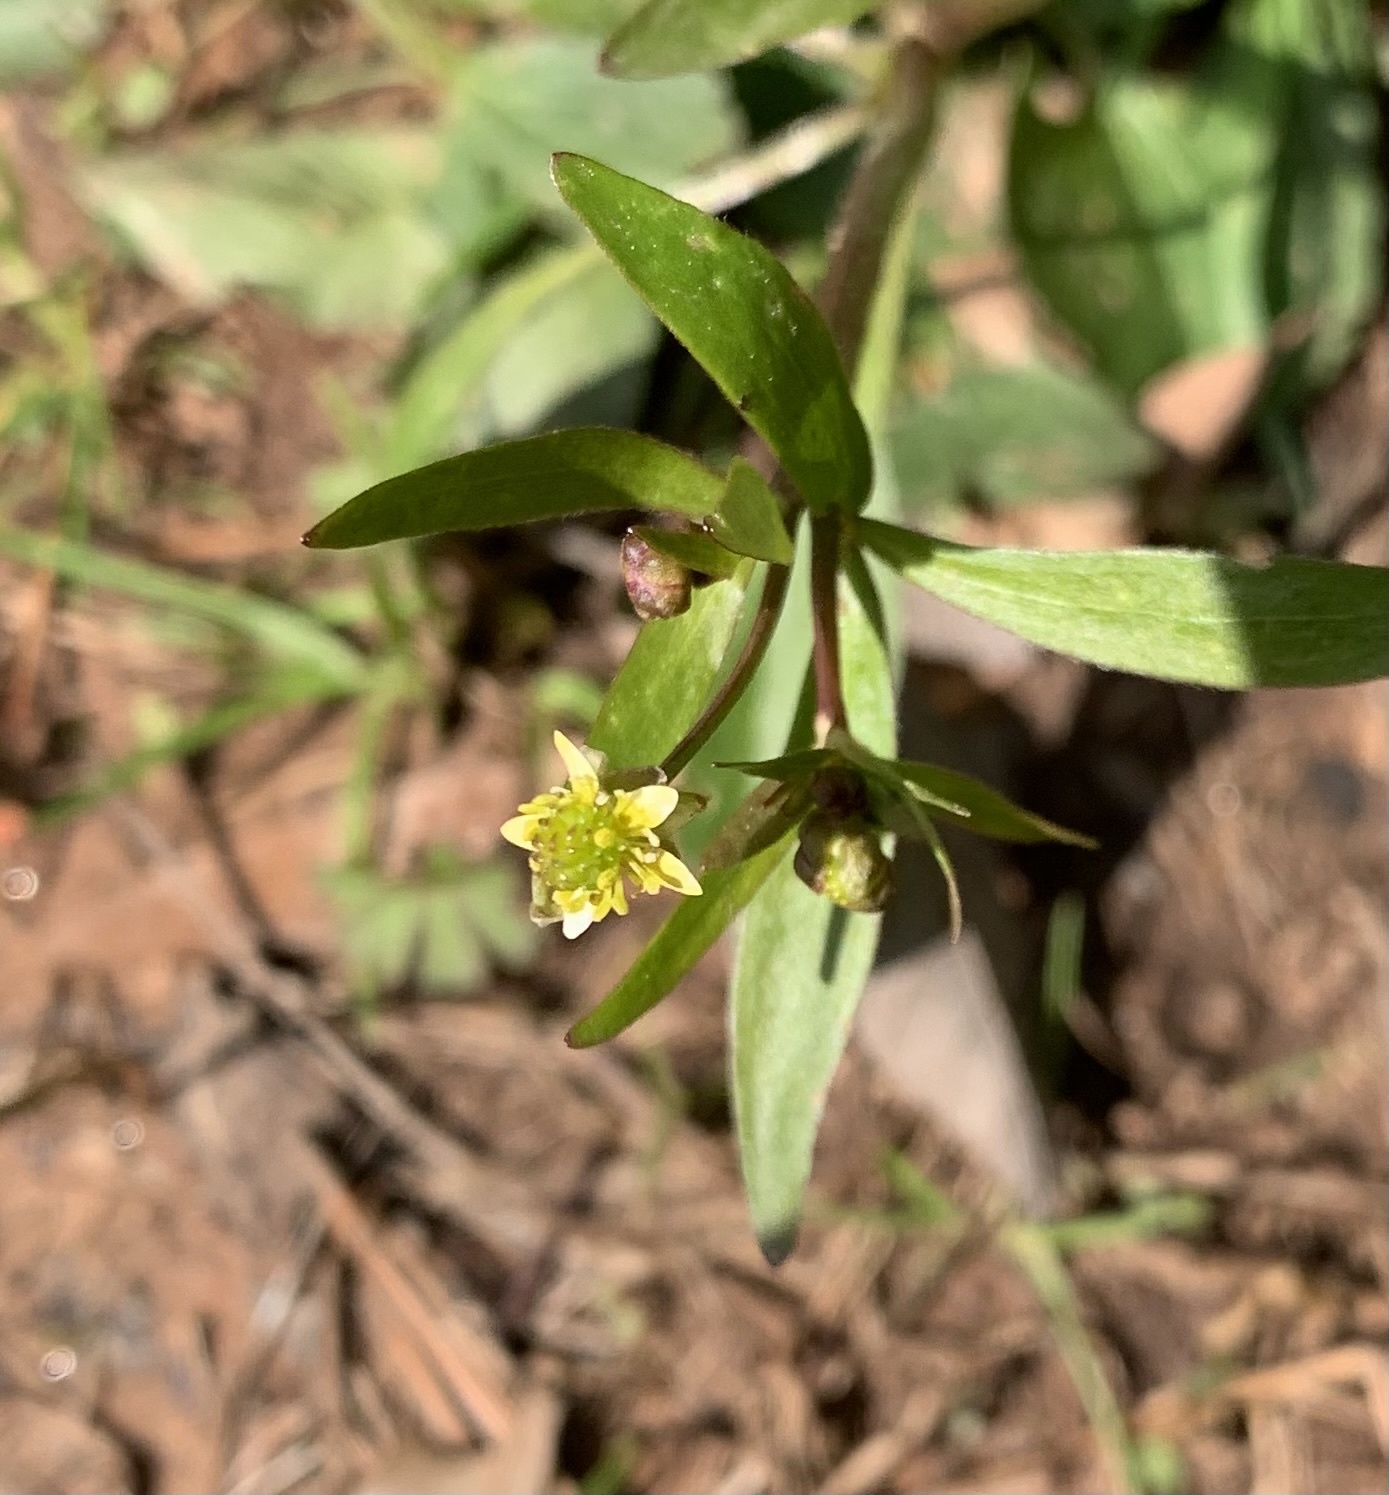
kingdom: Plantae
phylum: Tracheophyta
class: Magnoliopsida
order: Ranunculales
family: Ranunculaceae
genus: Ranunculus
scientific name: Ranunculus abortivus
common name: Early wood buttercup
